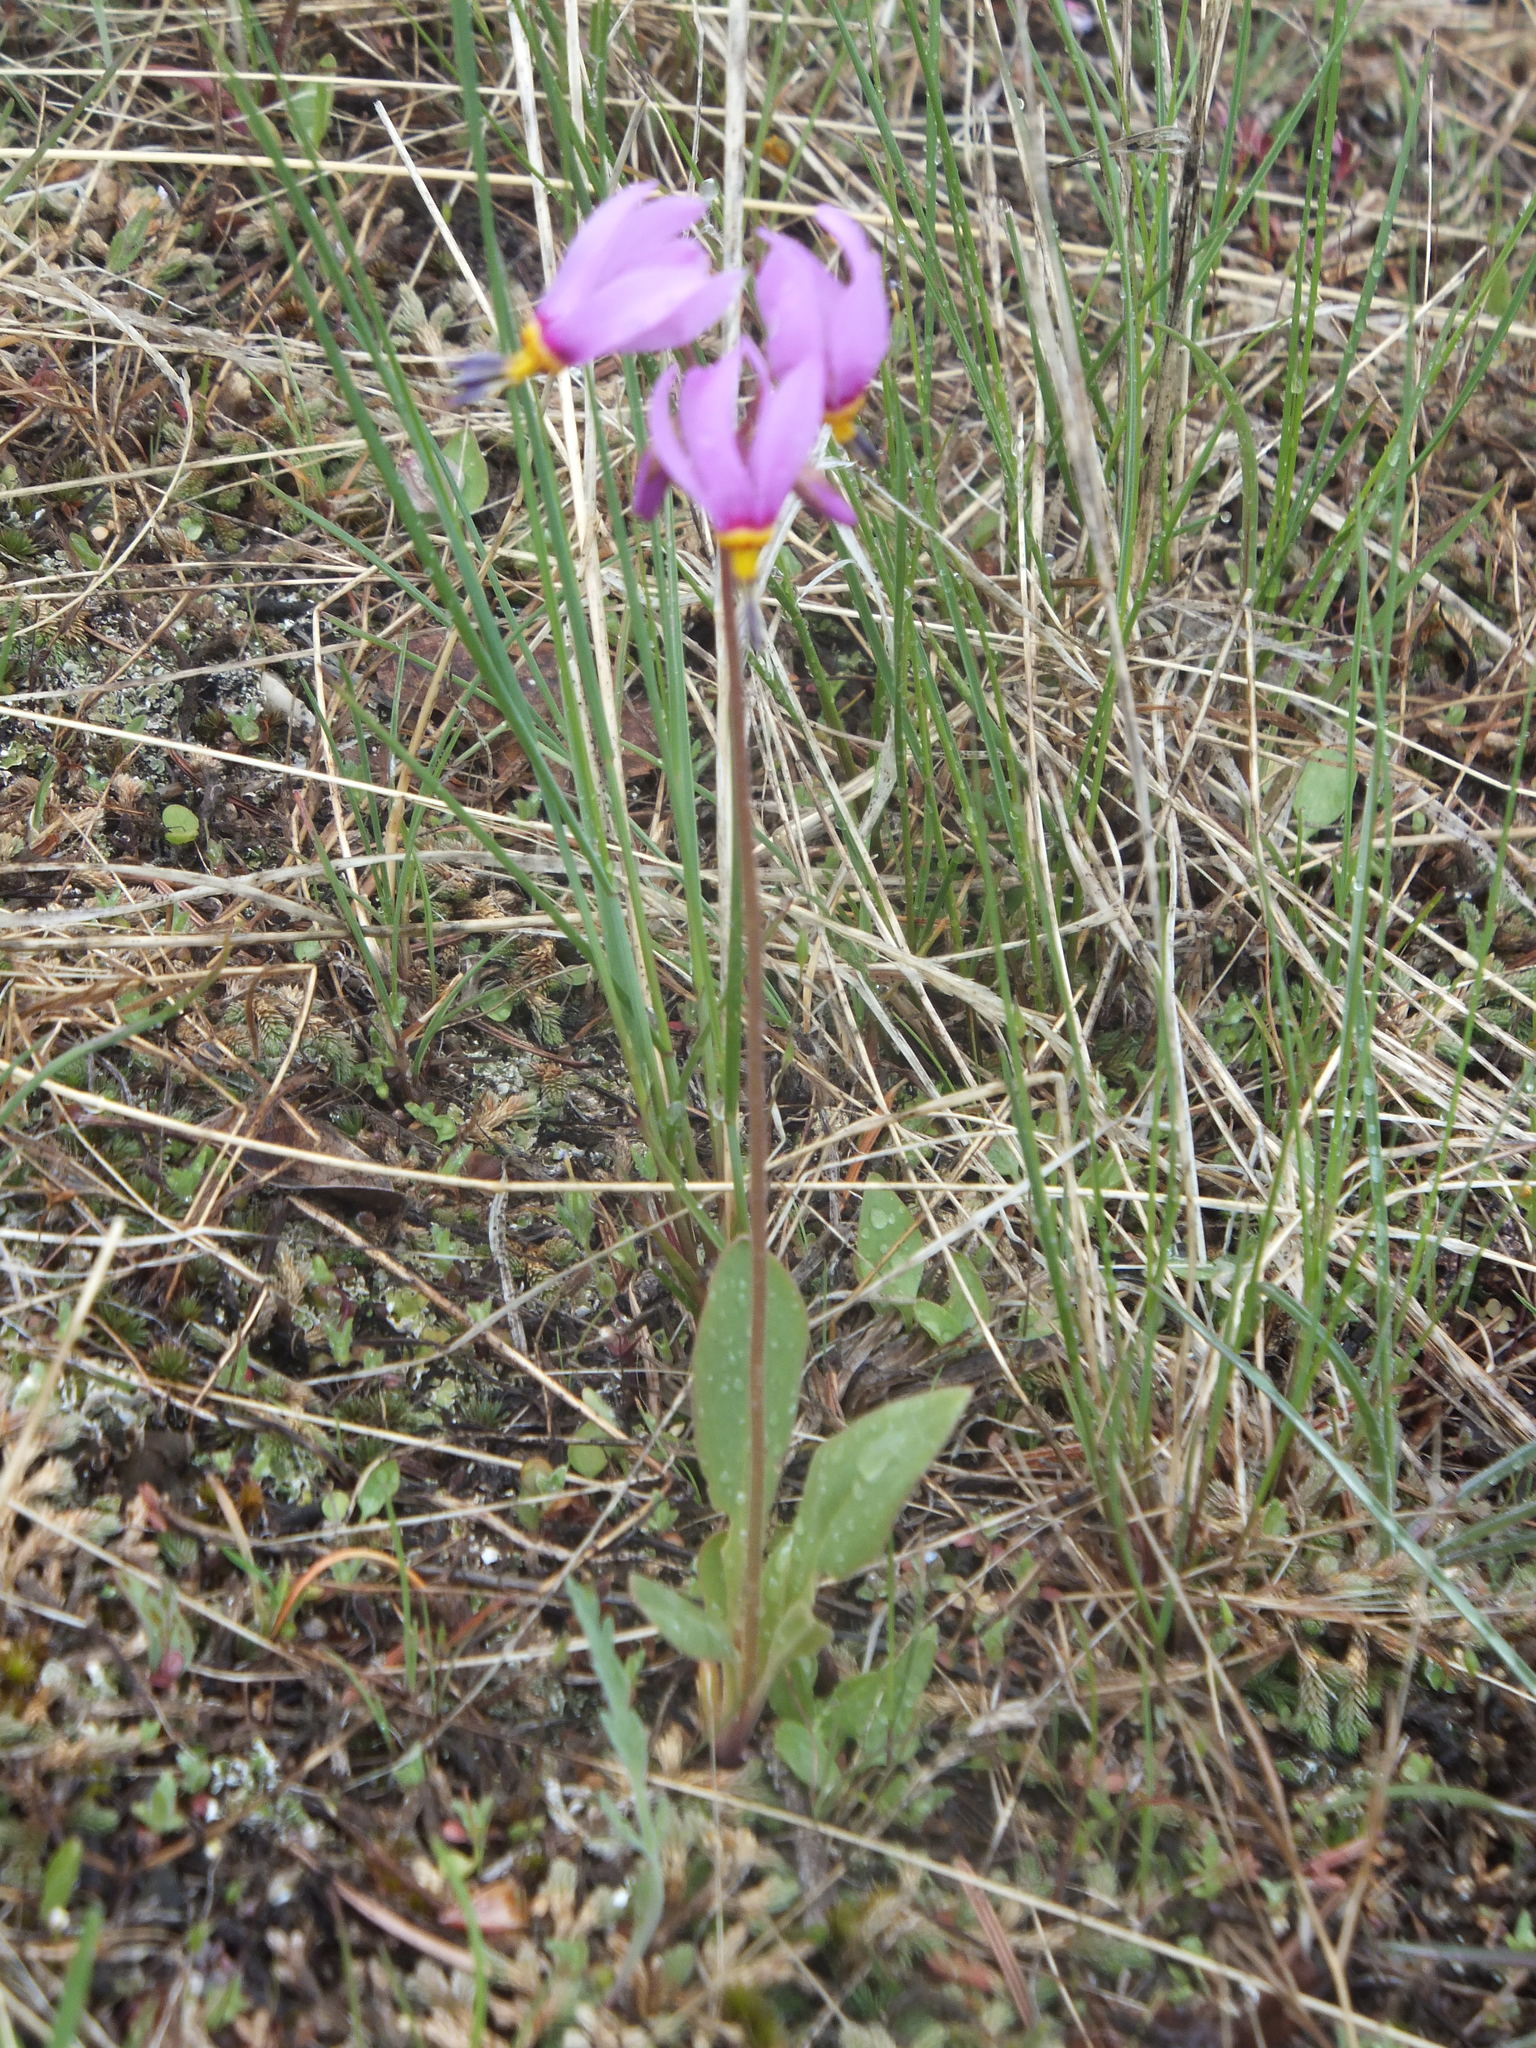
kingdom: Plantae
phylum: Tracheophyta
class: Magnoliopsida
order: Ericales
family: Primulaceae
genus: Dodecatheon
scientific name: Dodecatheon pulchellum
